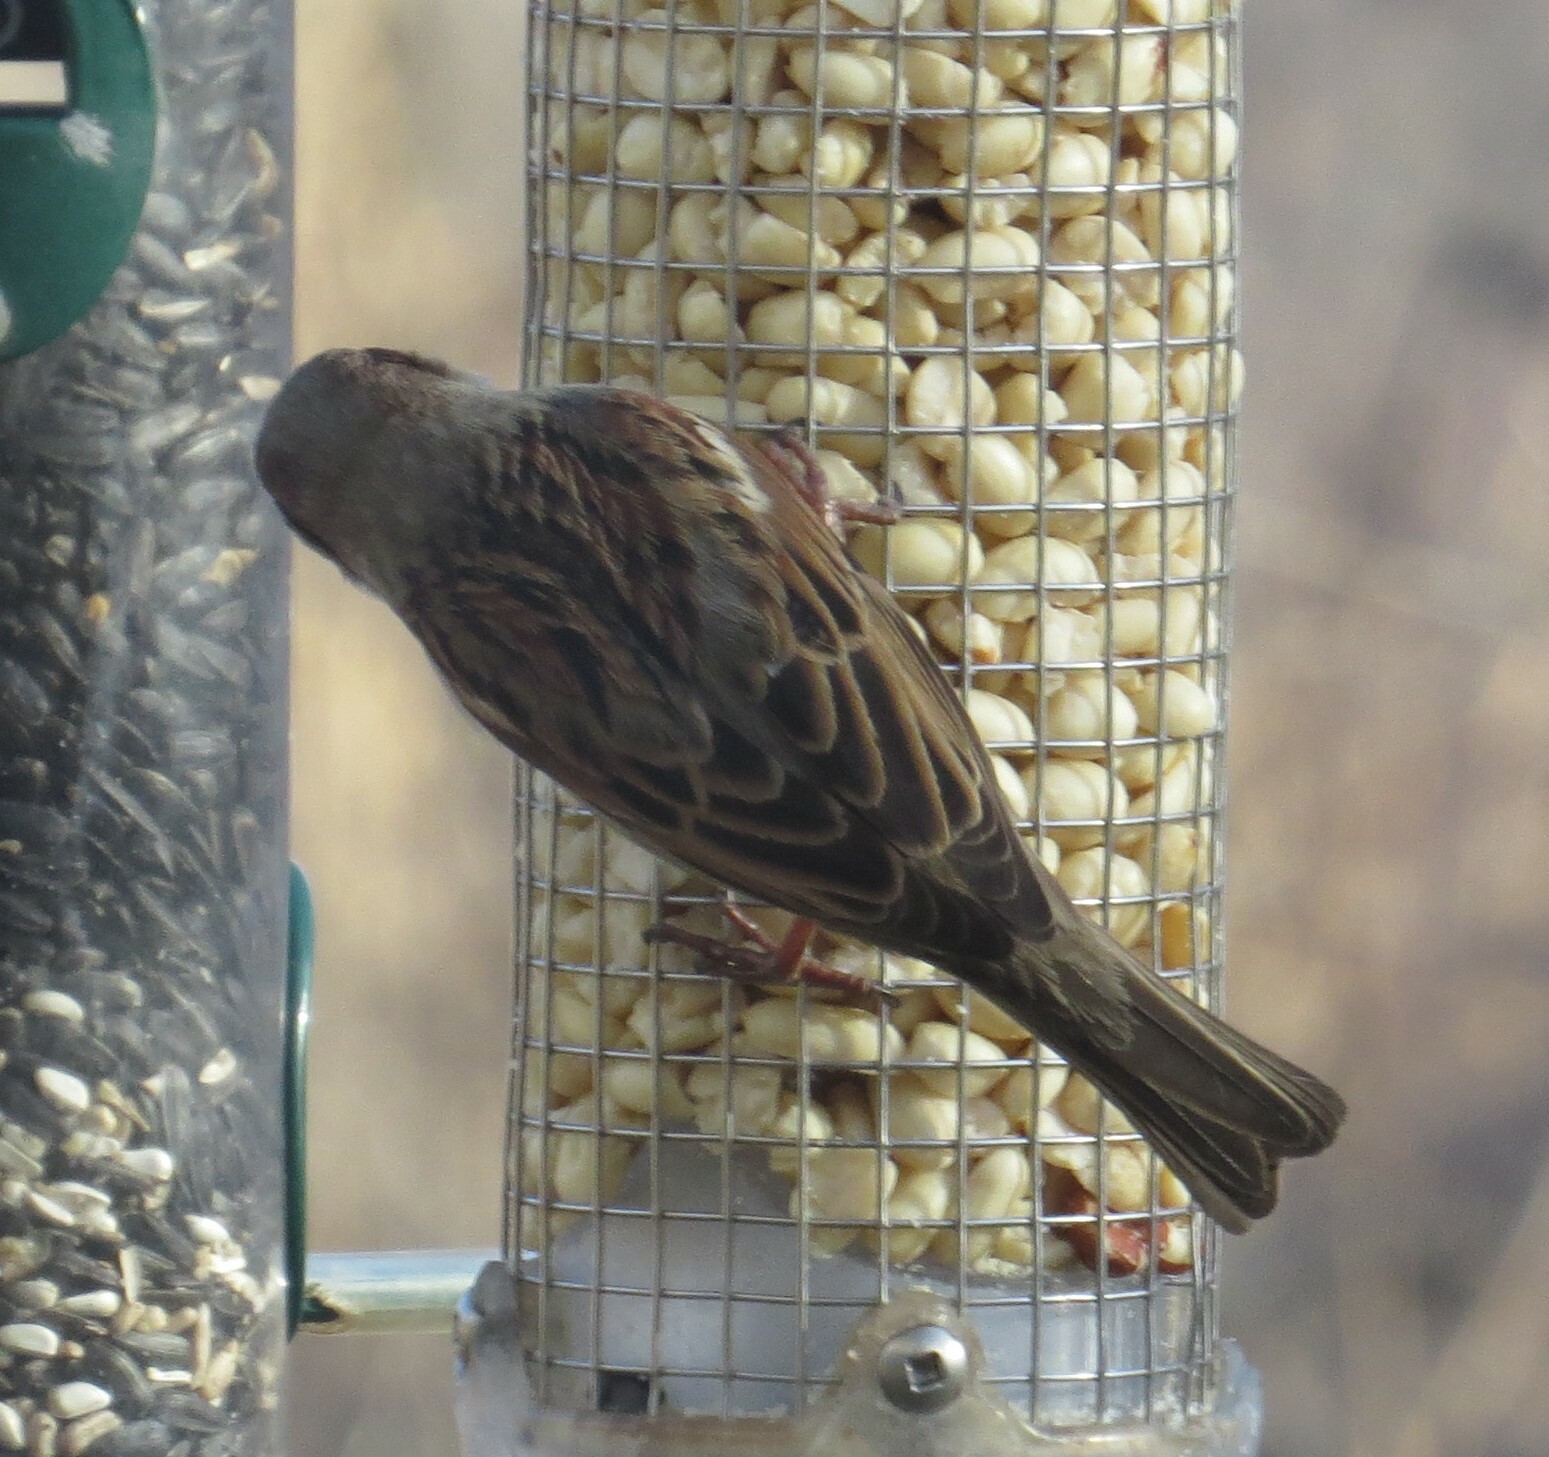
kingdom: Animalia
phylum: Chordata
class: Aves
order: Passeriformes
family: Passeridae
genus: Passer
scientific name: Passer domesticus
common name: House sparrow
